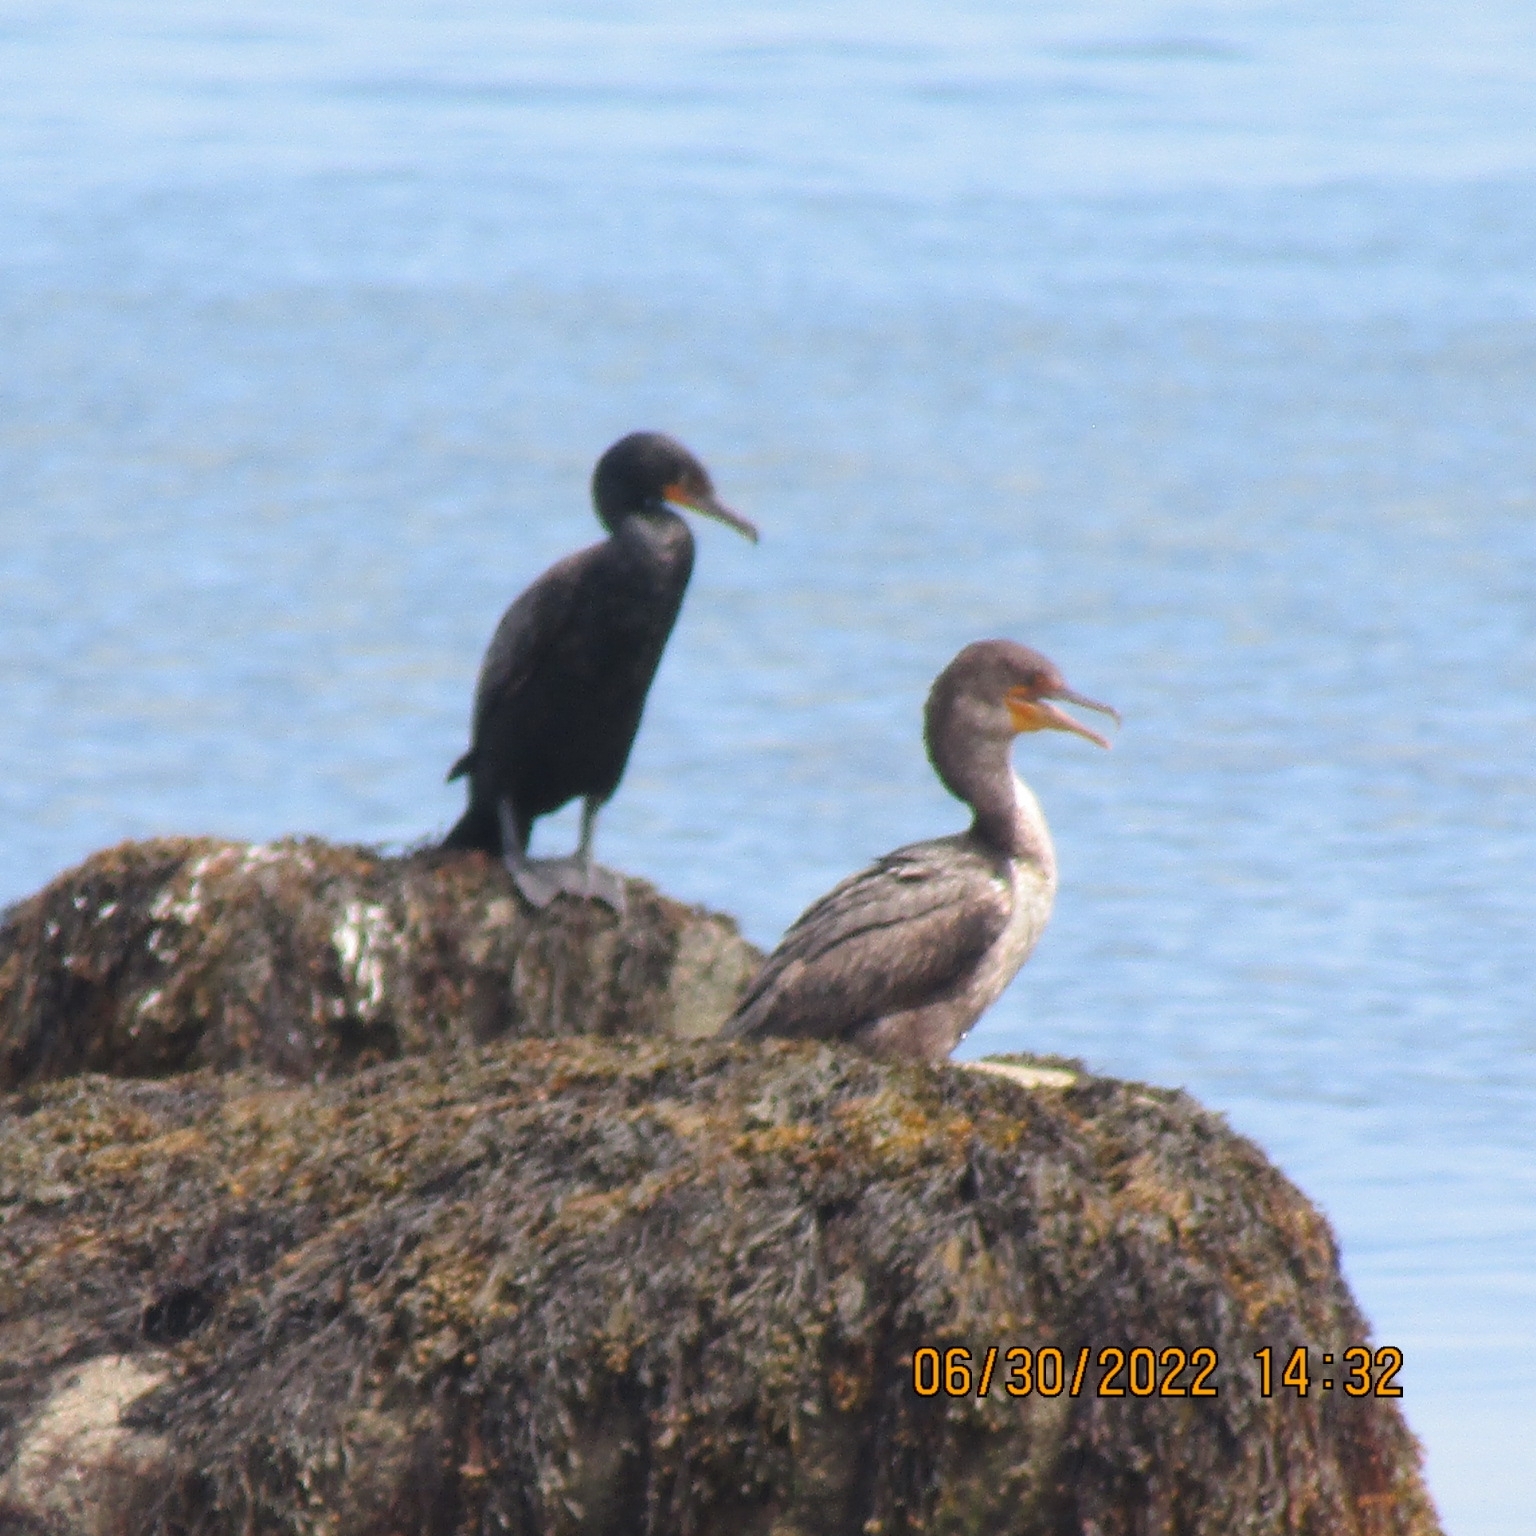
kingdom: Animalia
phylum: Chordata
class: Aves
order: Suliformes
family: Phalacrocoracidae
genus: Phalacrocorax
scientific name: Phalacrocorax auritus
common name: Double-crested cormorant
